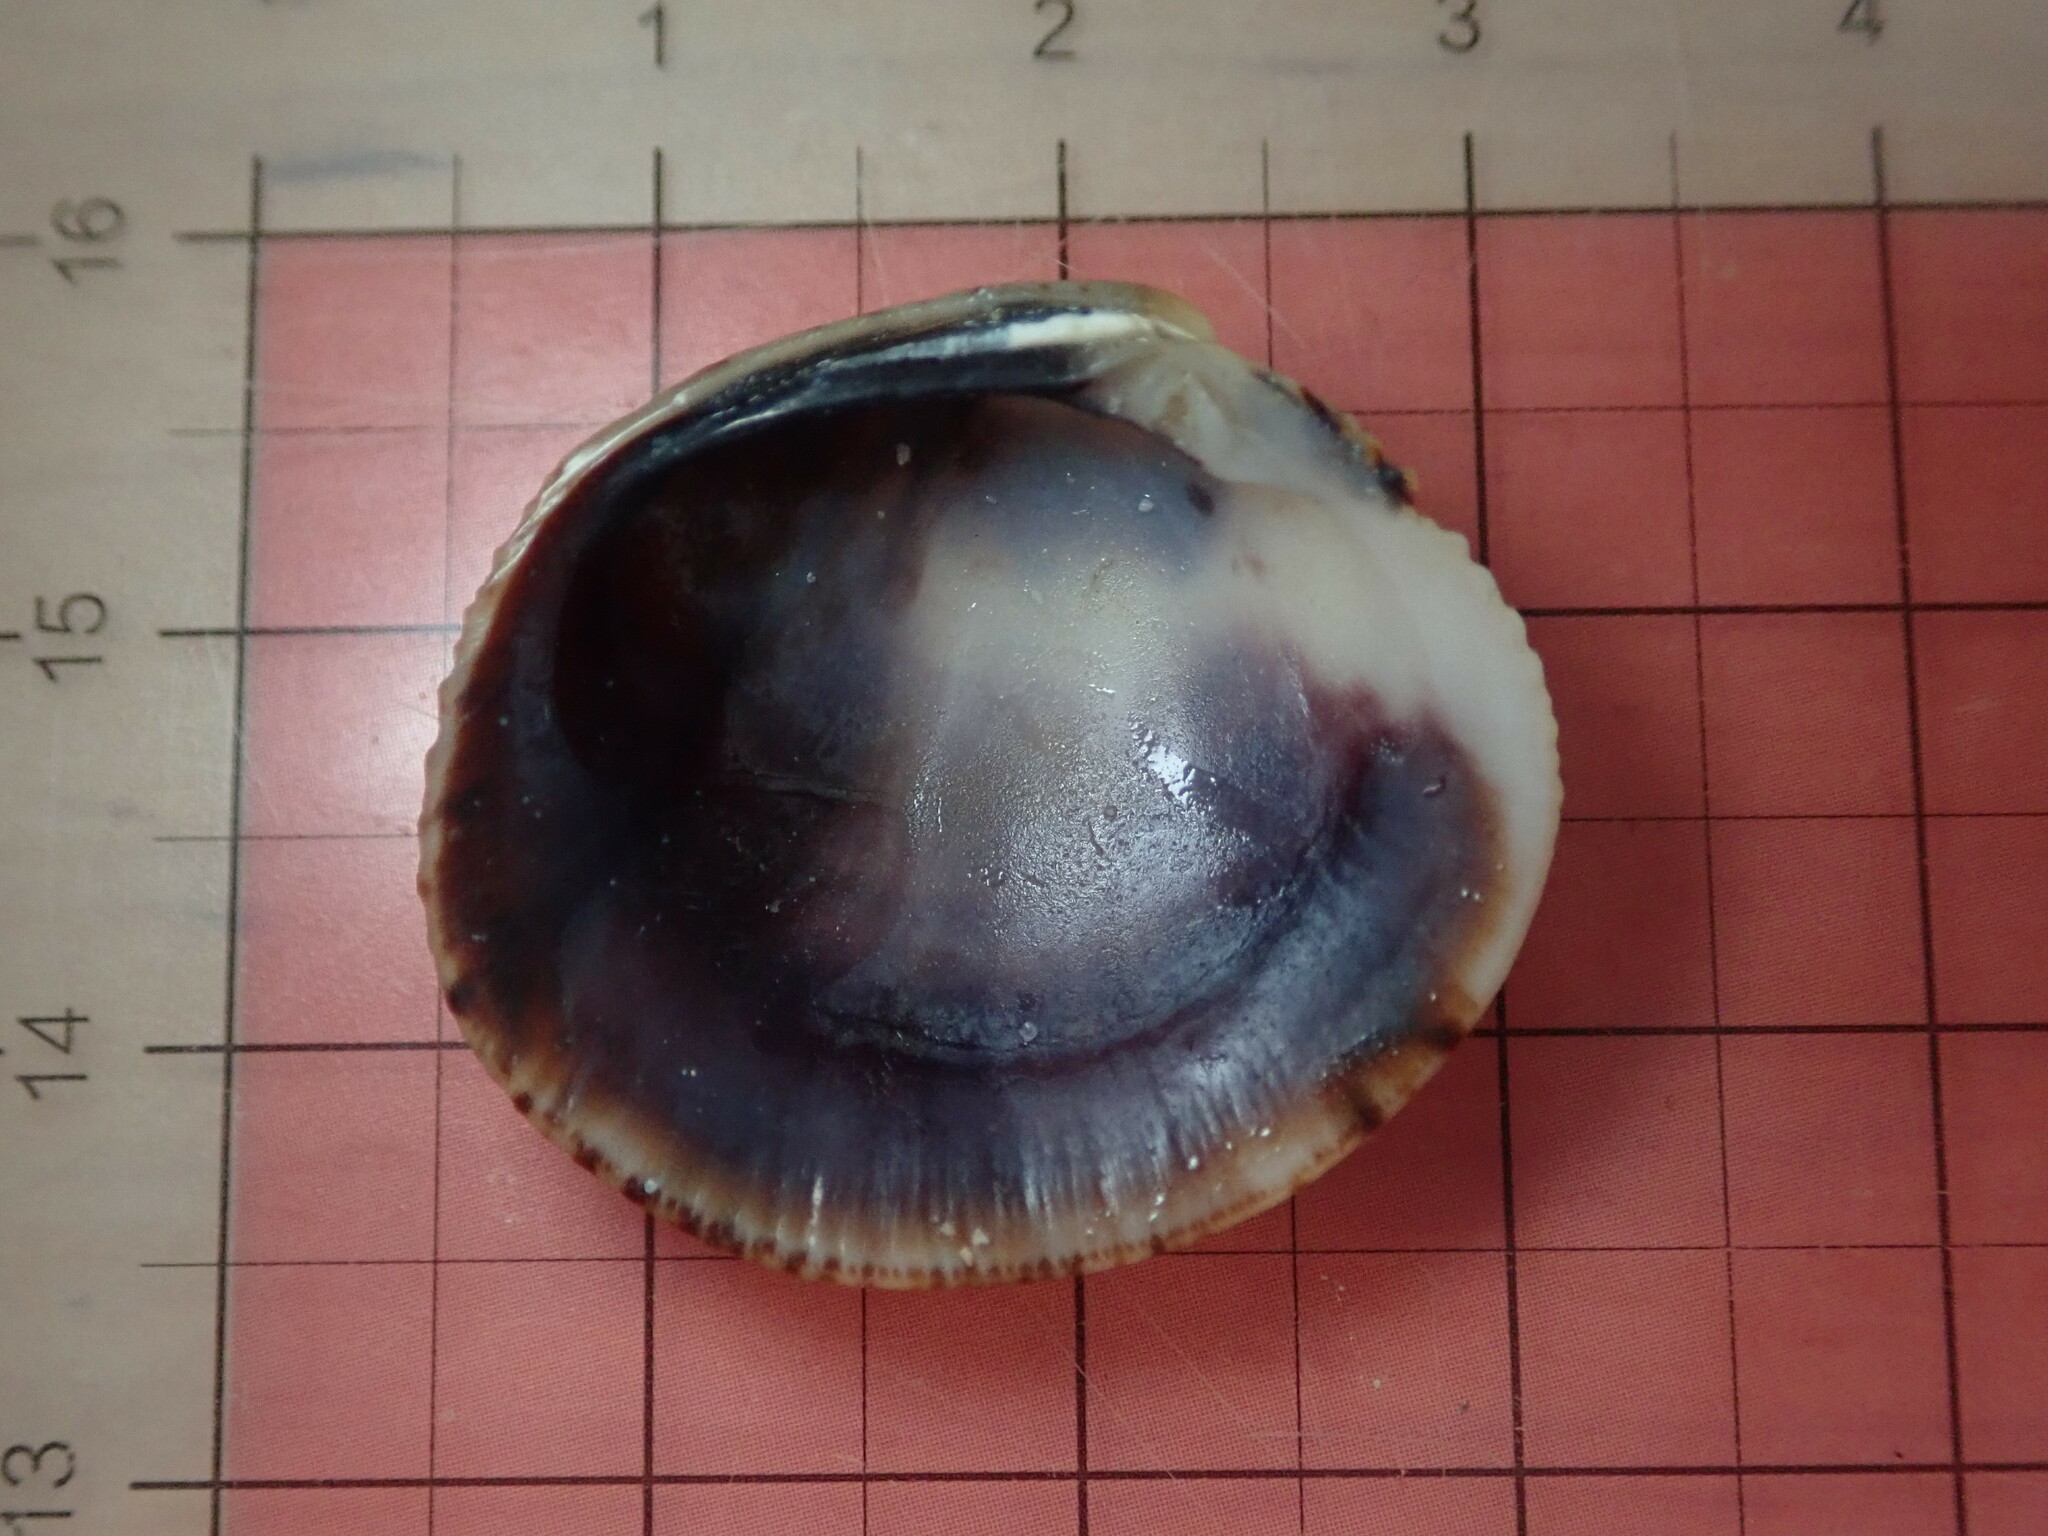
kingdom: Animalia
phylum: Mollusca
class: Bivalvia
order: Venerida
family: Veneridae
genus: Leukoma
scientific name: Leukoma grata
